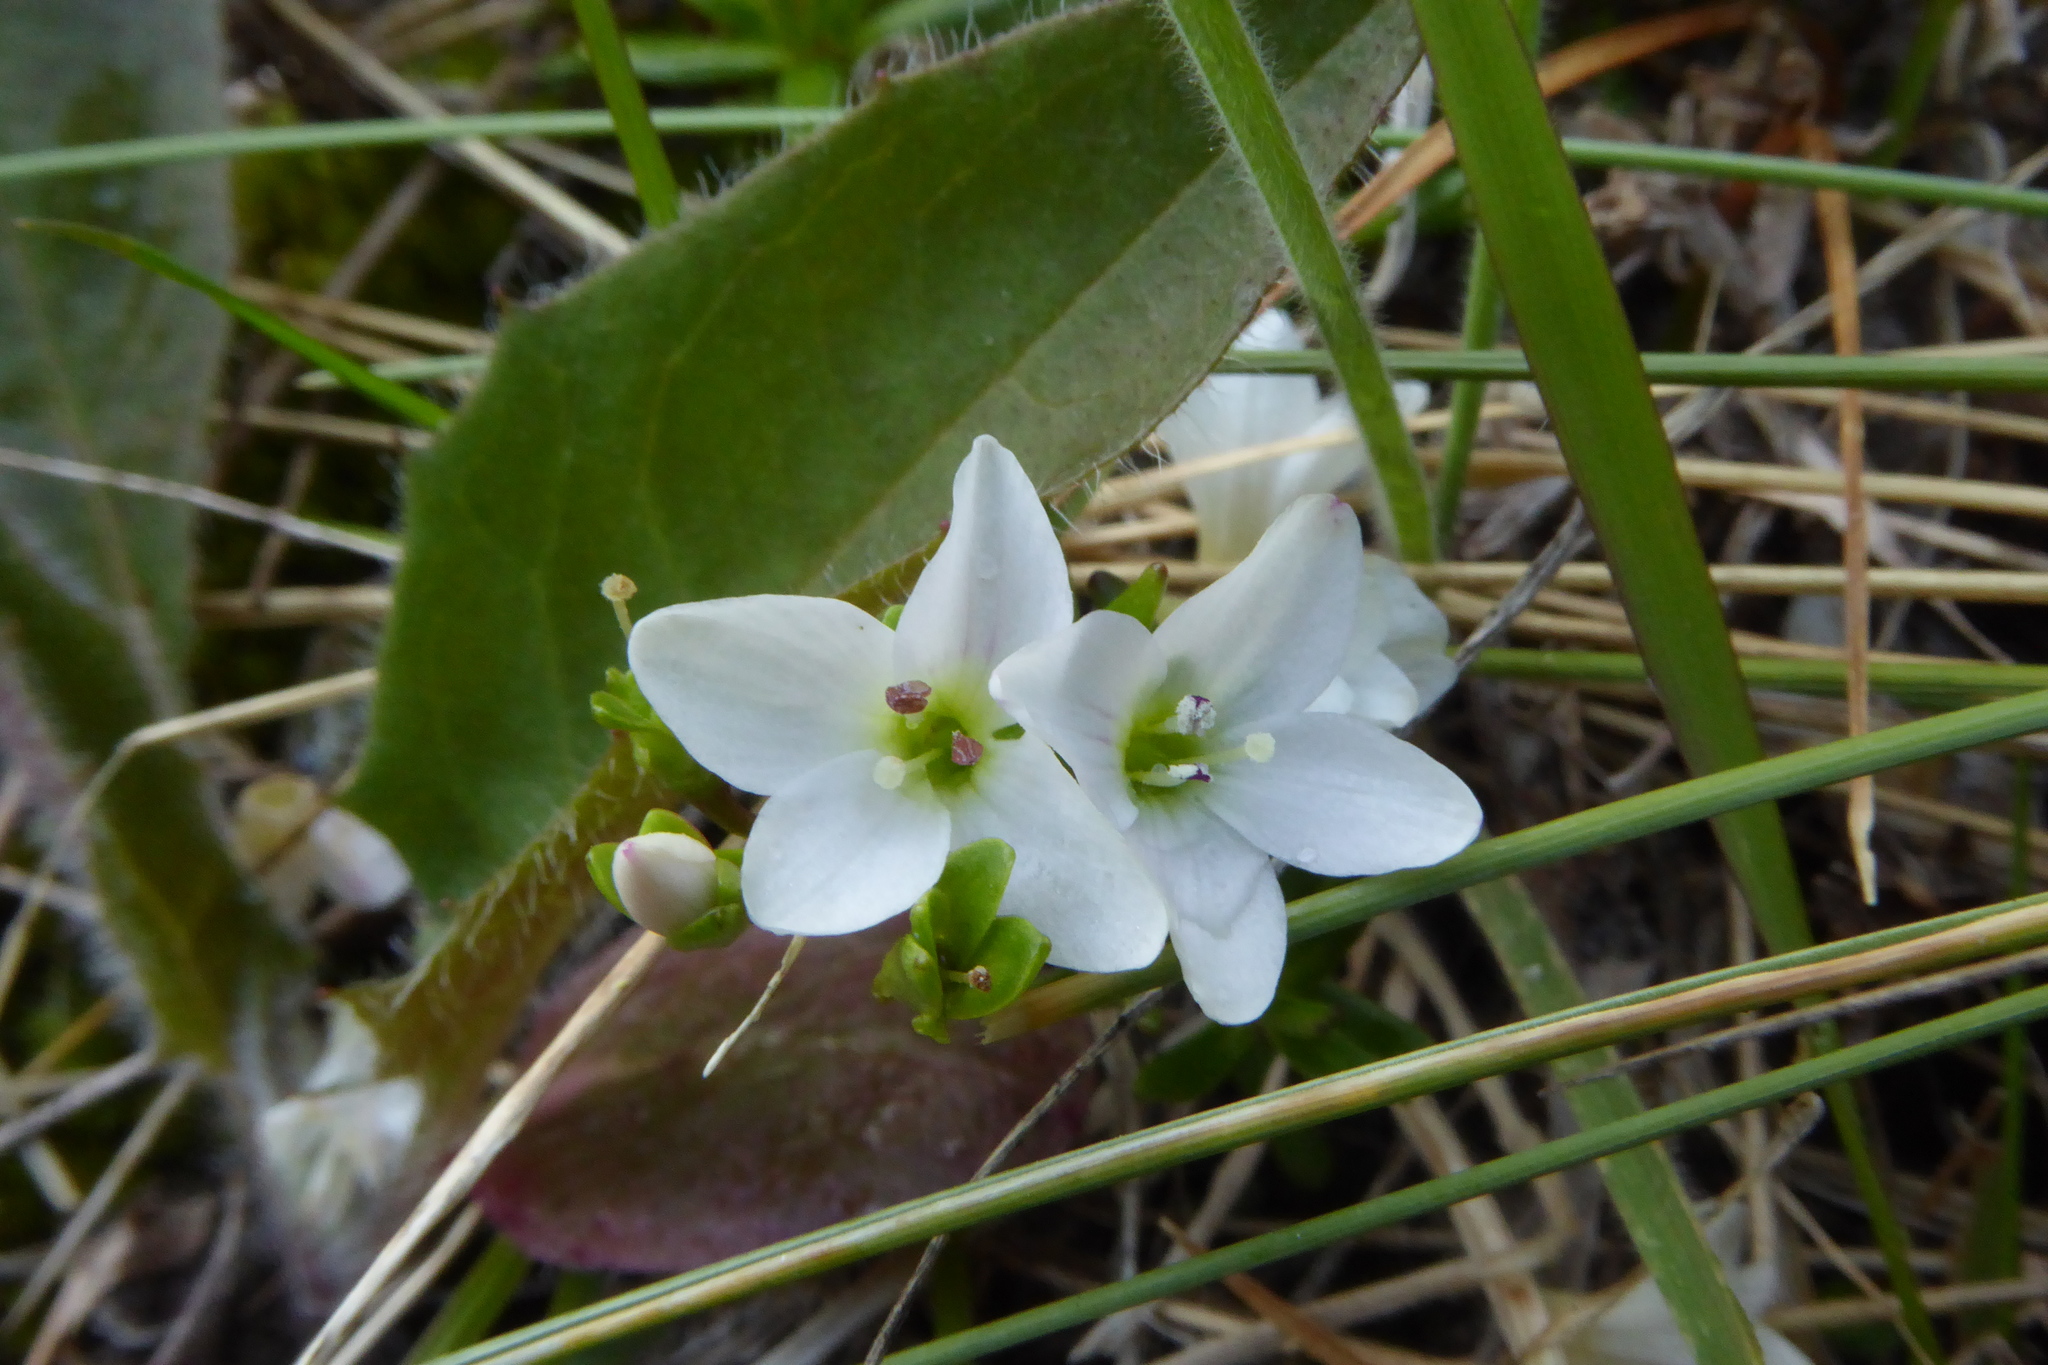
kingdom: Plantae
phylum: Tracheophyta
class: Magnoliopsida
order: Lamiales
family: Plantaginaceae
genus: Veronica
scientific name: Veronica colostylis
